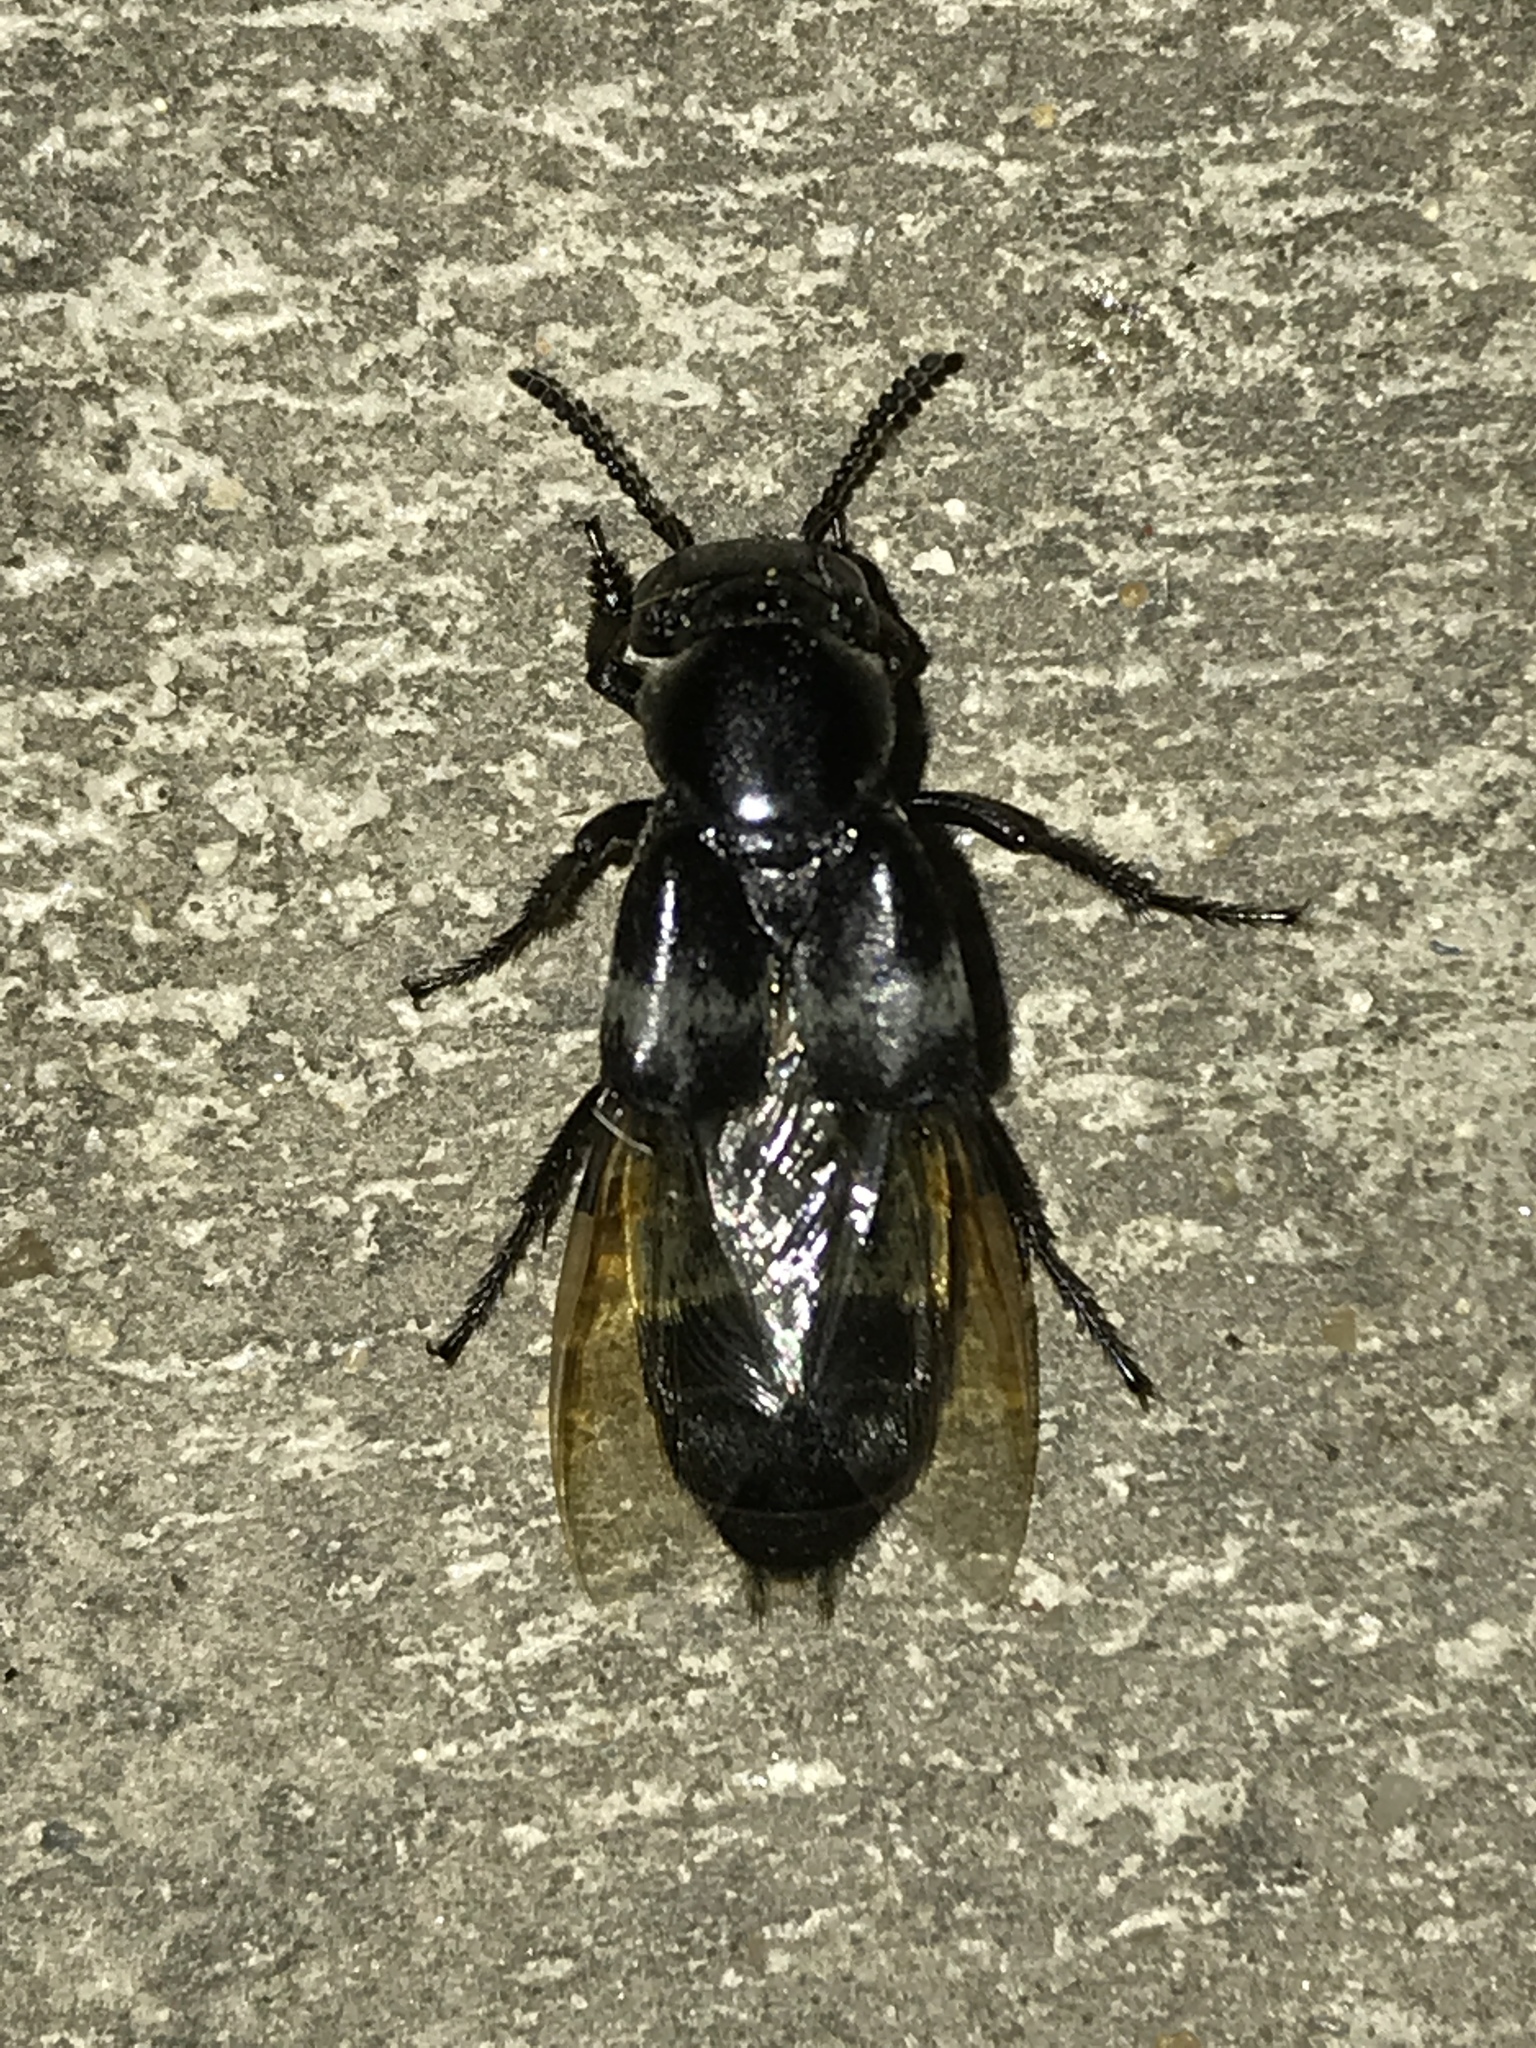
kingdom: Animalia
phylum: Arthropoda
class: Insecta
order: Coleoptera
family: Staphylinidae
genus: Creophilus
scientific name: Creophilus maxillosus
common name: Hairy rove beetle
